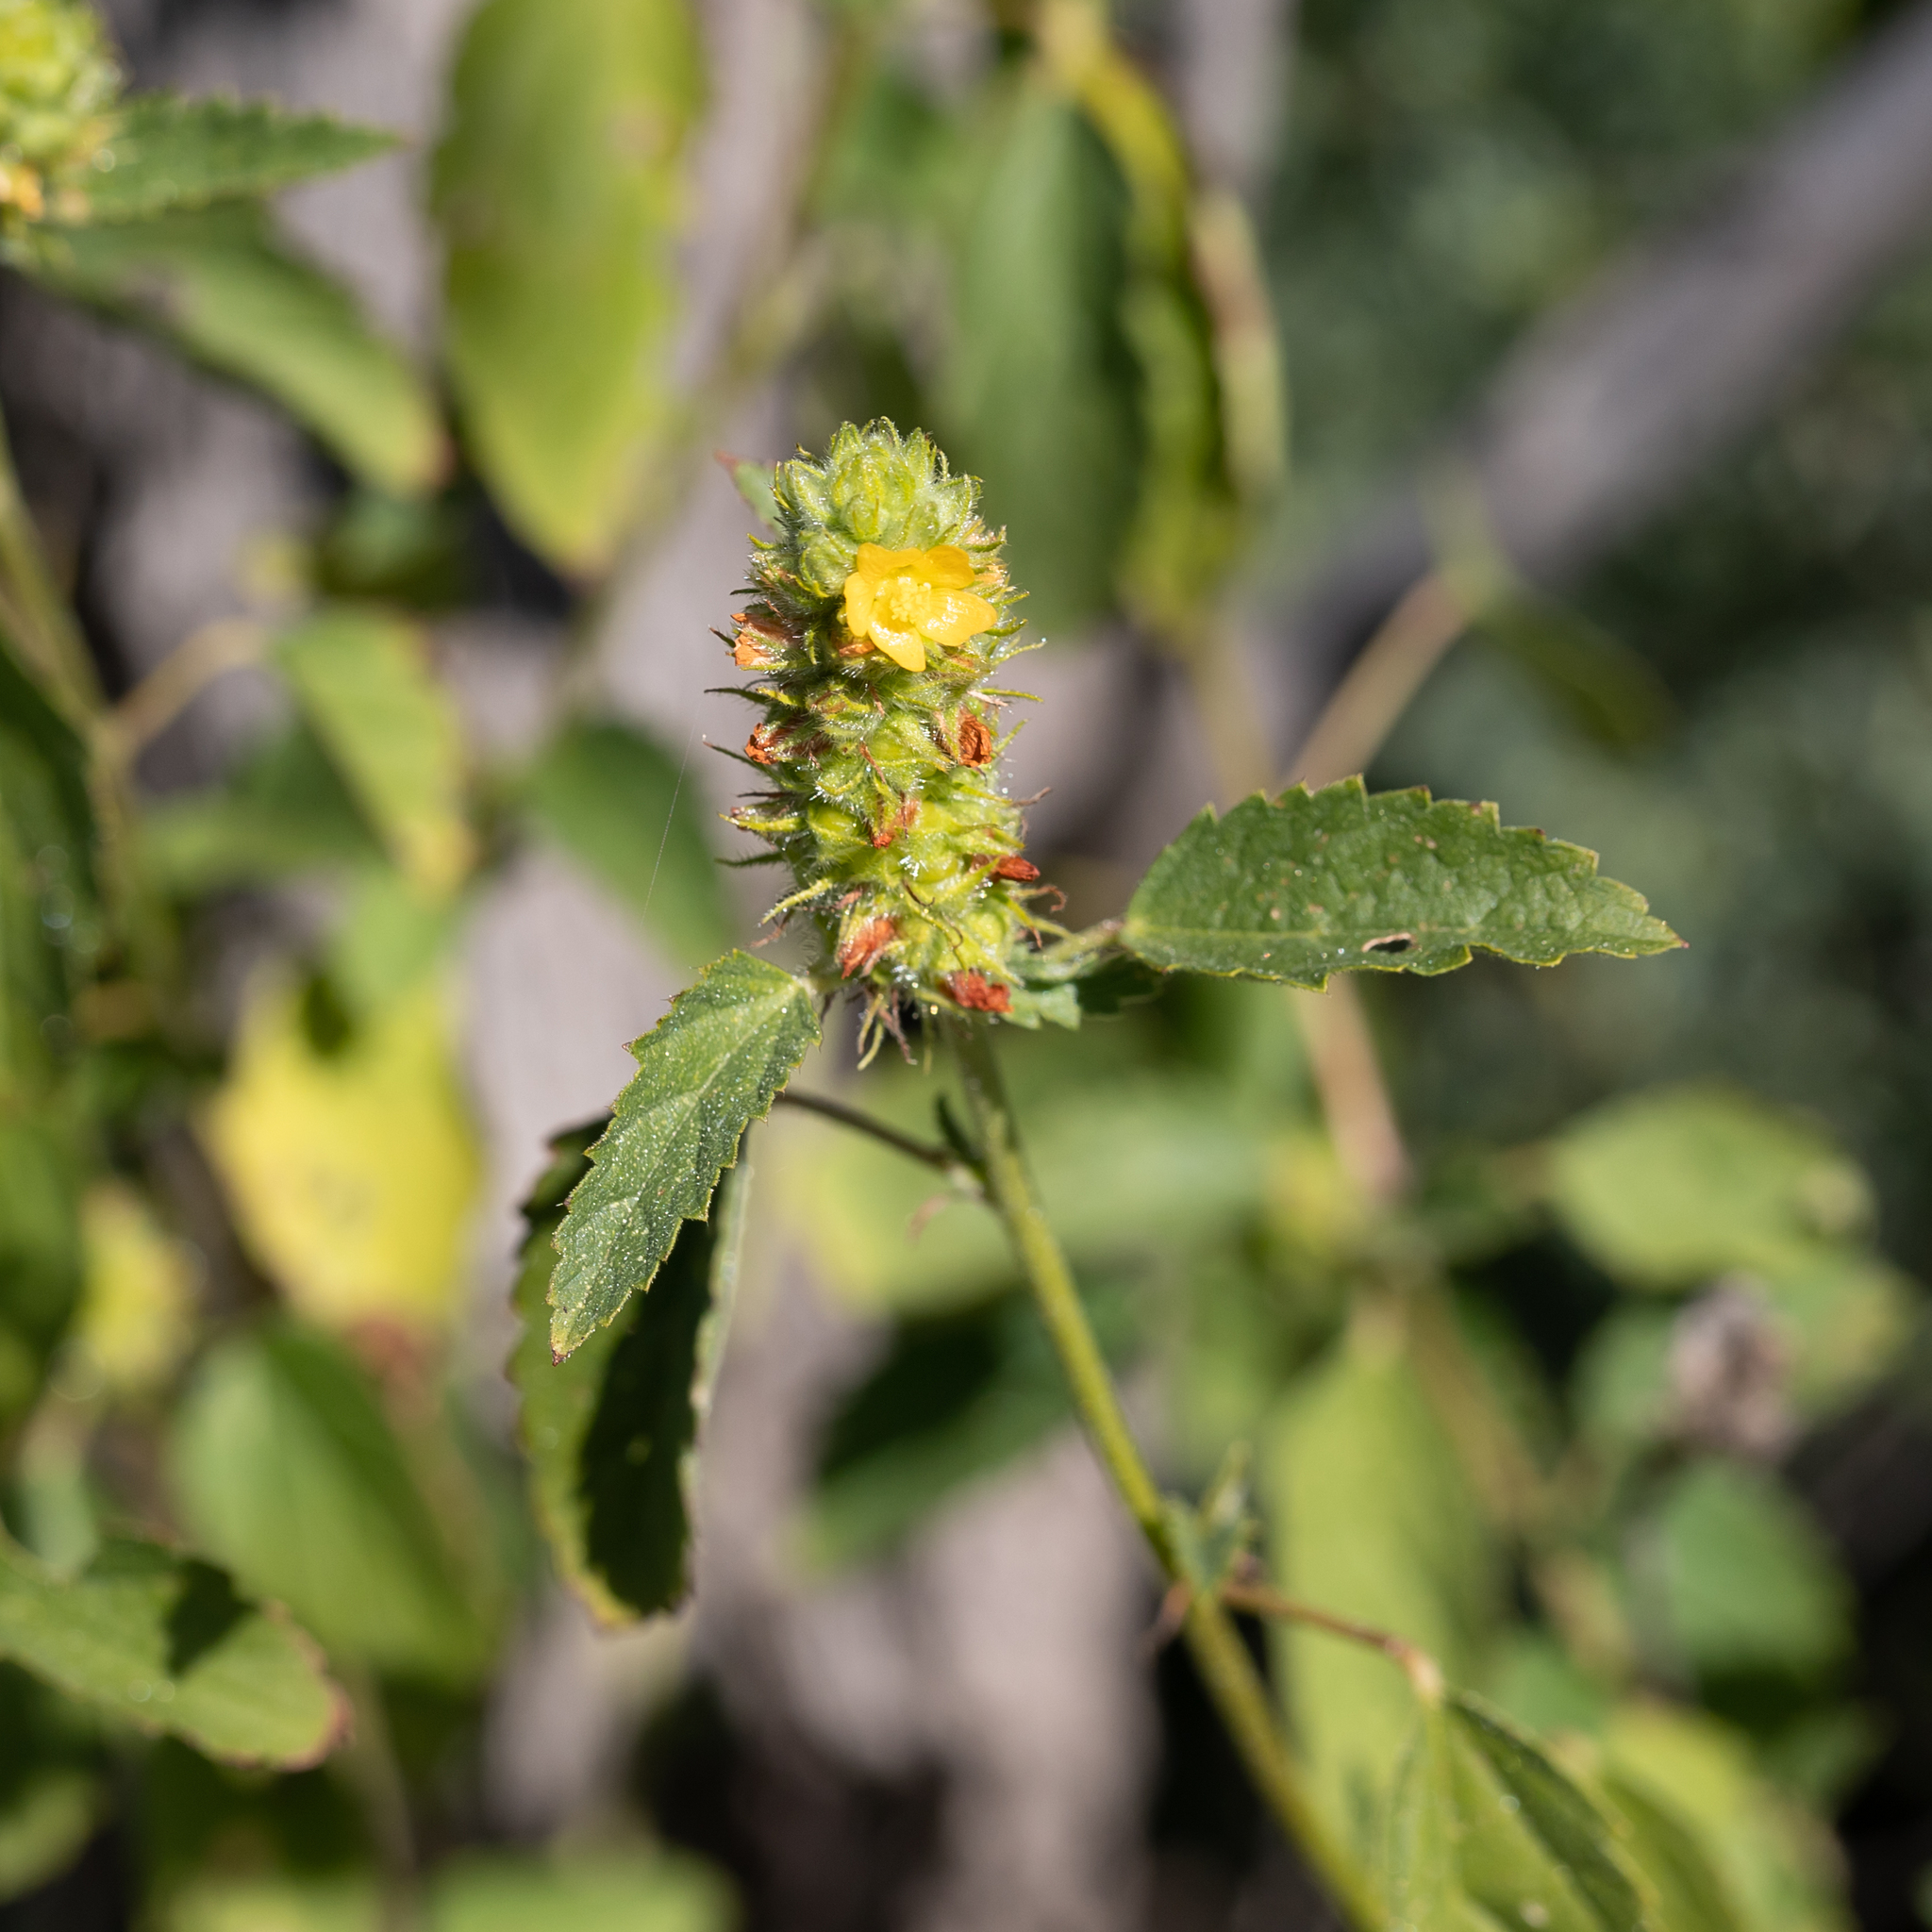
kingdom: Plantae
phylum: Tracheophyta
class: Magnoliopsida
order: Malvales
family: Malvaceae
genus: Malvastrum
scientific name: Malvastrum americanum
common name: Spiked malvastrum
